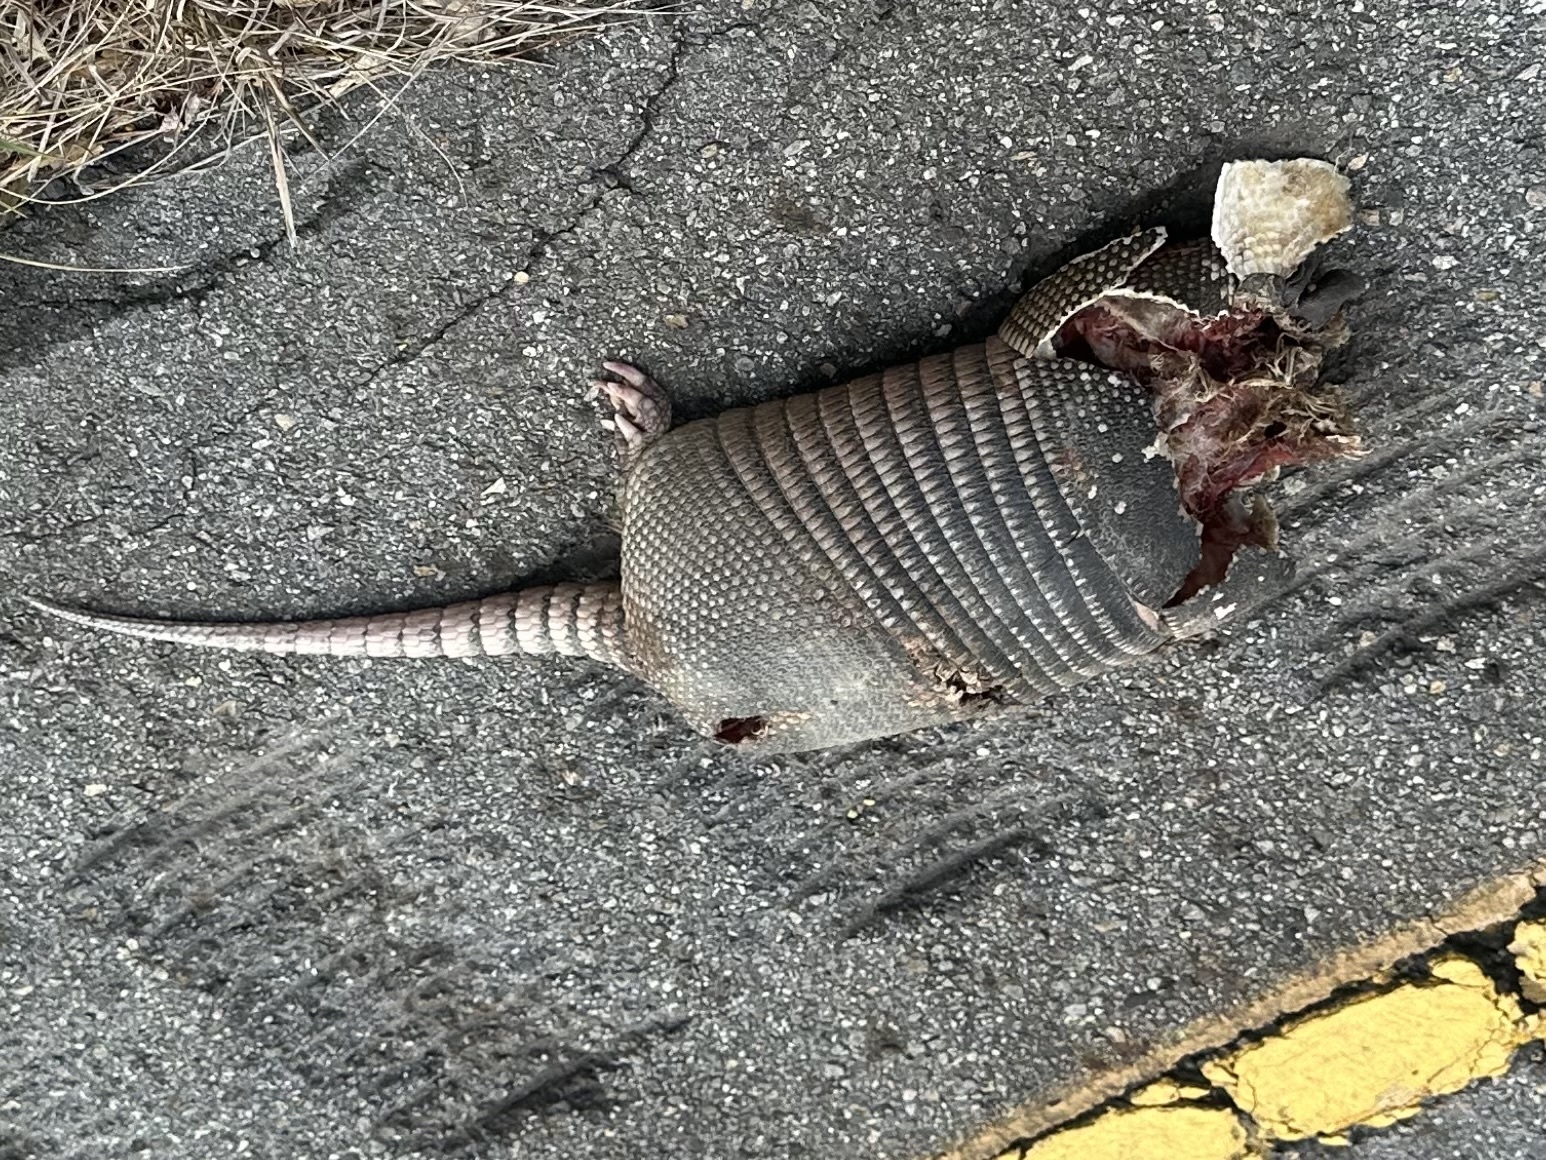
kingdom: Animalia
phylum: Chordata
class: Mammalia
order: Cingulata
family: Dasypodidae
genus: Dasypus
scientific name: Dasypus novemcinctus
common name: Nine-banded armadillo
